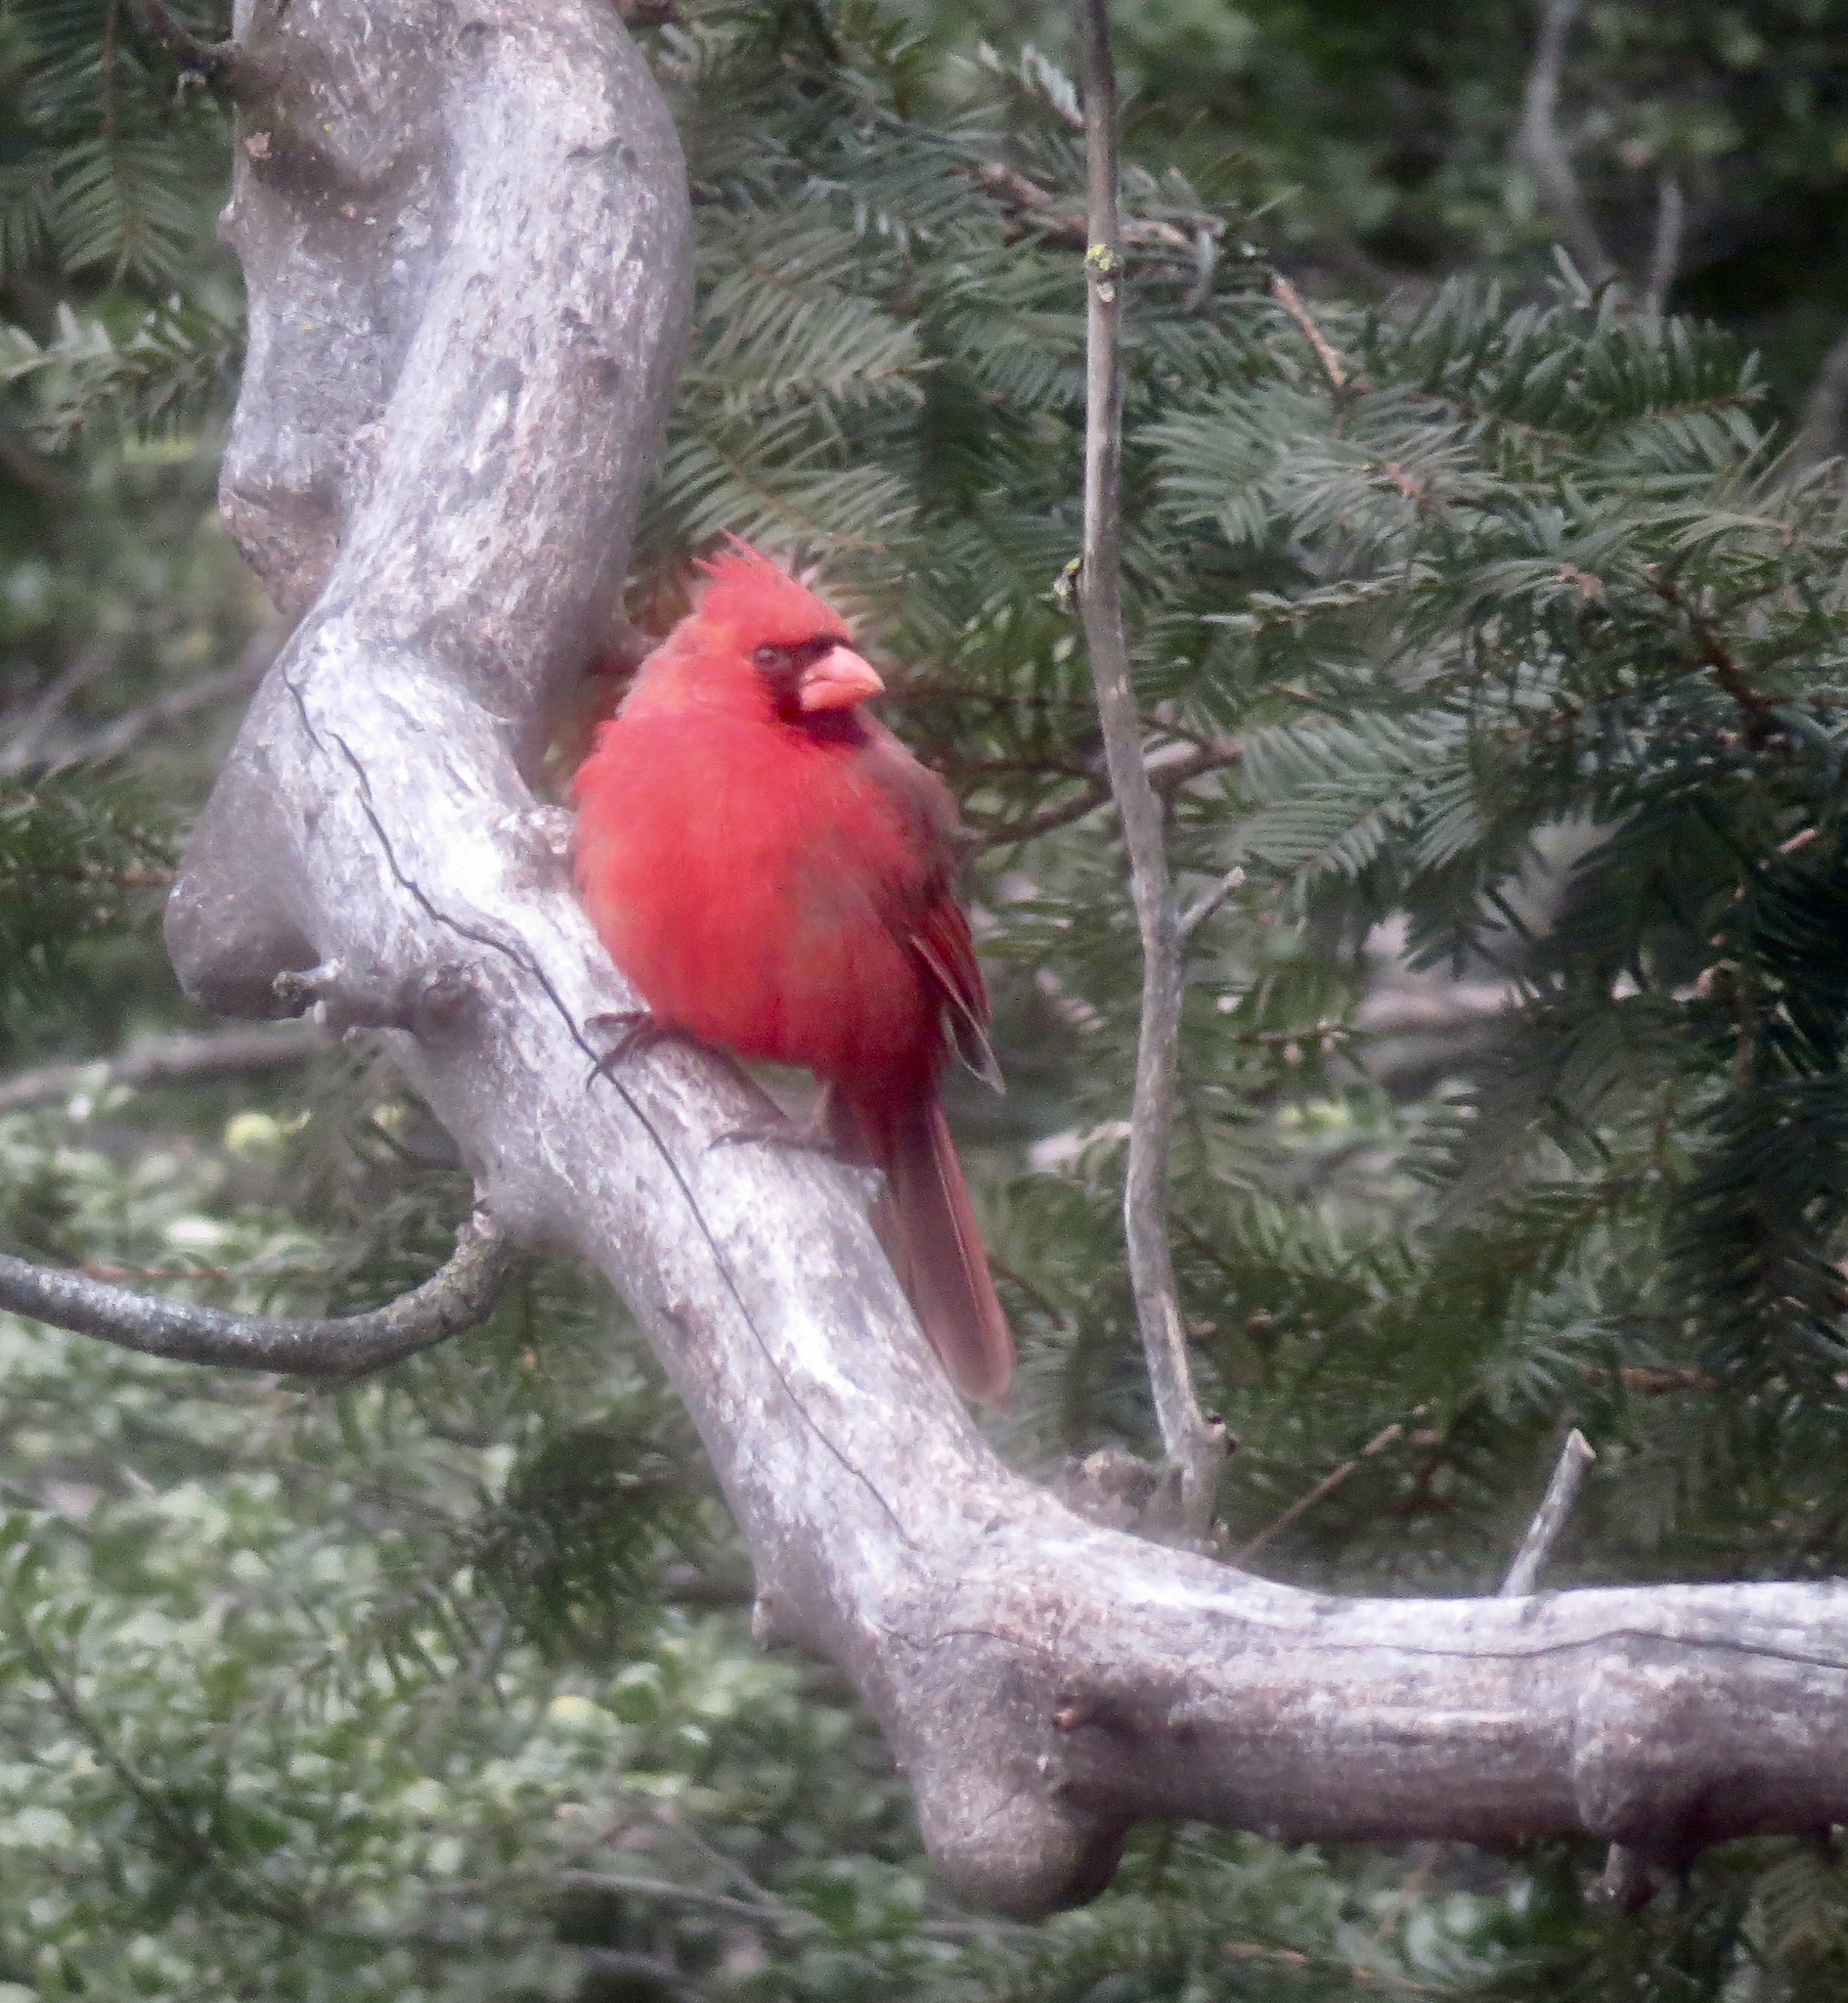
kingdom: Animalia
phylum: Chordata
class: Aves
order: Passeriformes
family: Cardinalidae
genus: Cardinalis
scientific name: Cardinalis cardinalis
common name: Northern cardinal
